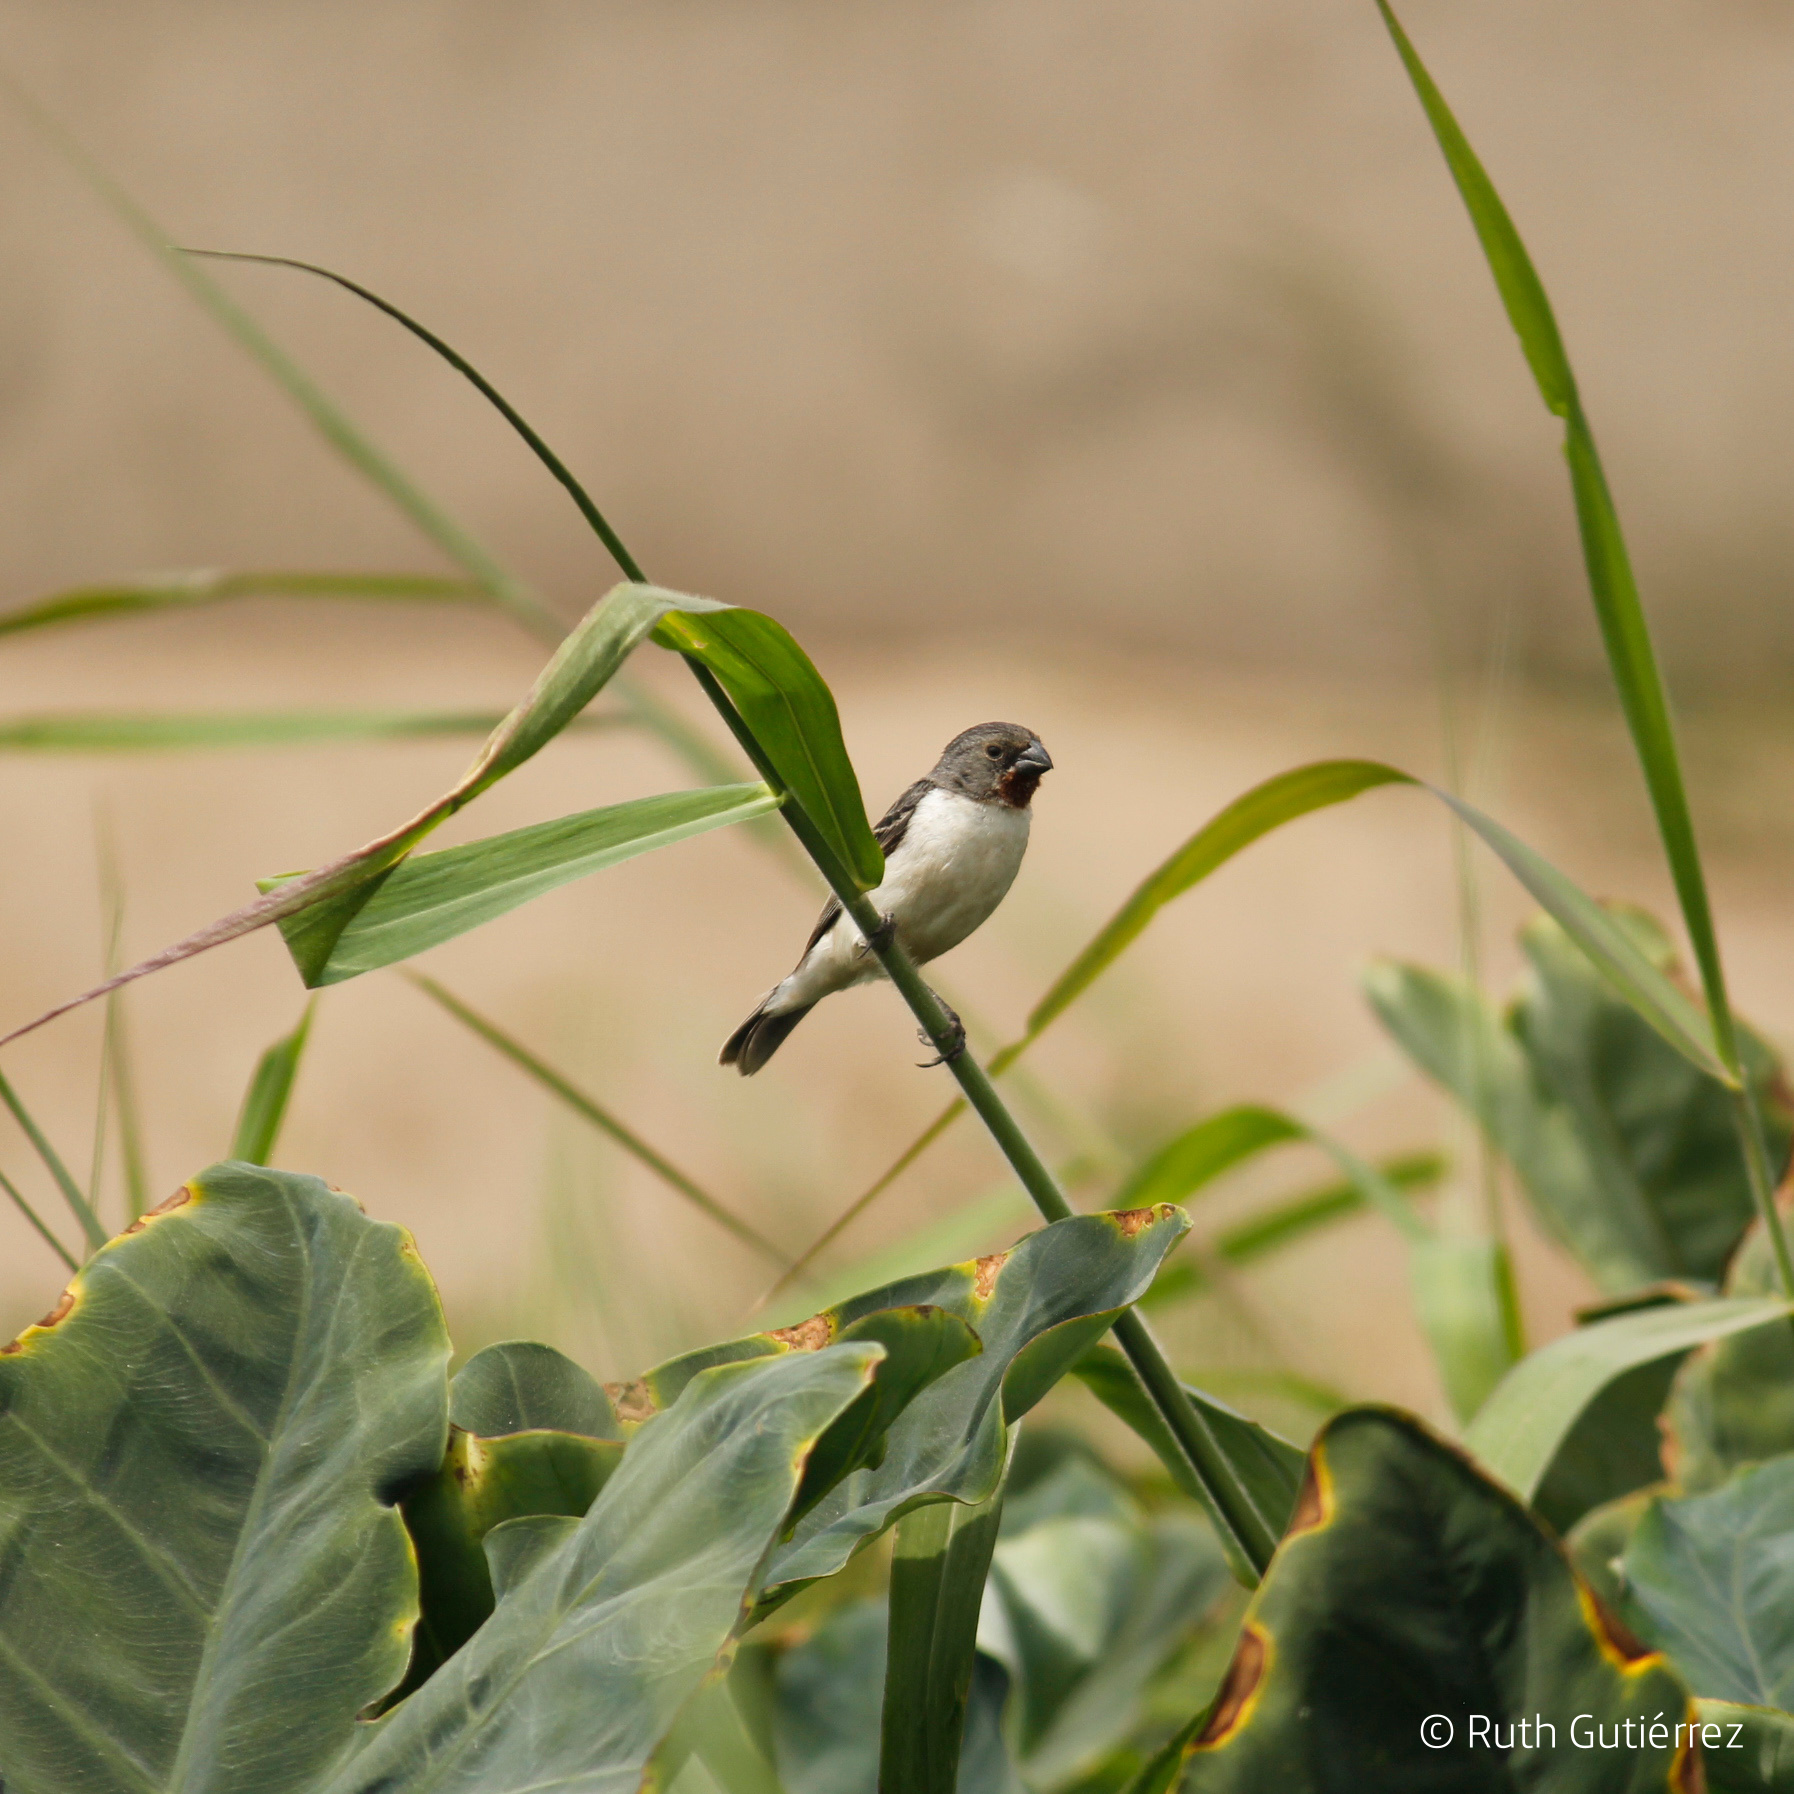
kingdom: Animalia
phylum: Chordata
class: Aves
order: Passeriformes
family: Thraupidae
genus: Sporophila
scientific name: Sporophila telasco
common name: Chestnut-throated seedeater
